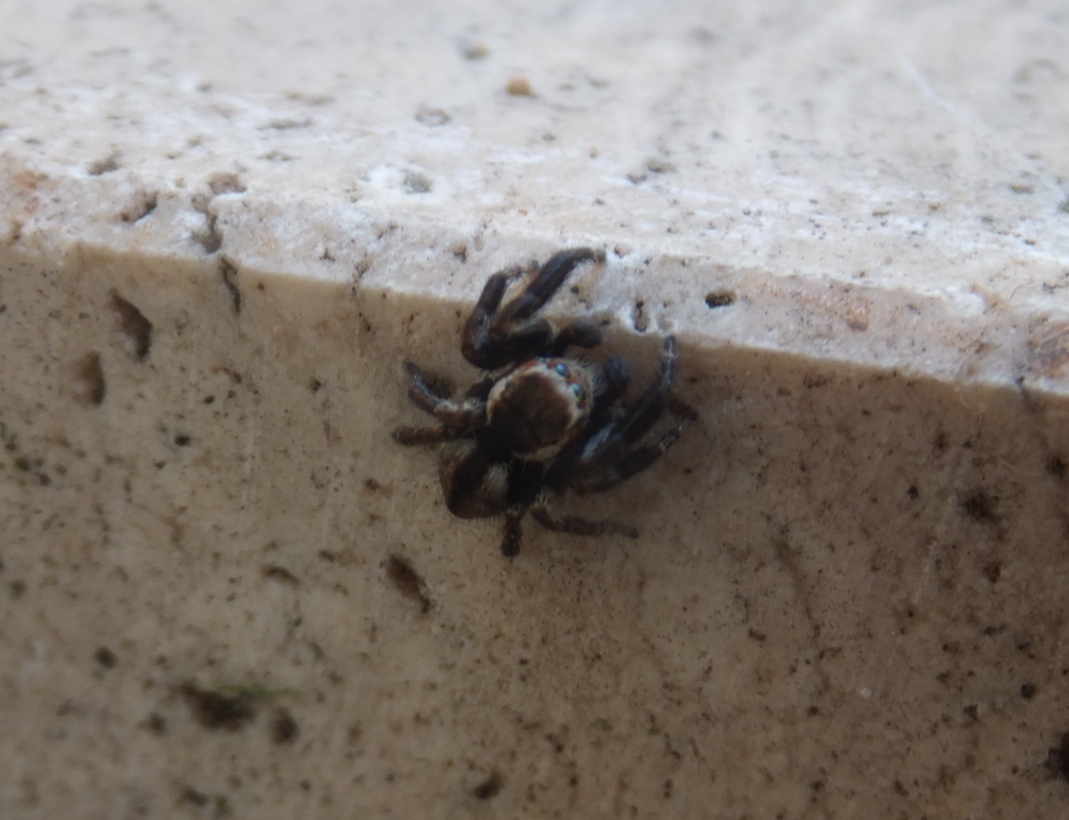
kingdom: Animalia
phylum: Arthropoda
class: Arachnida
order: Araneae
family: Salticidae
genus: Evarcha
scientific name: Evarcha michailovi
